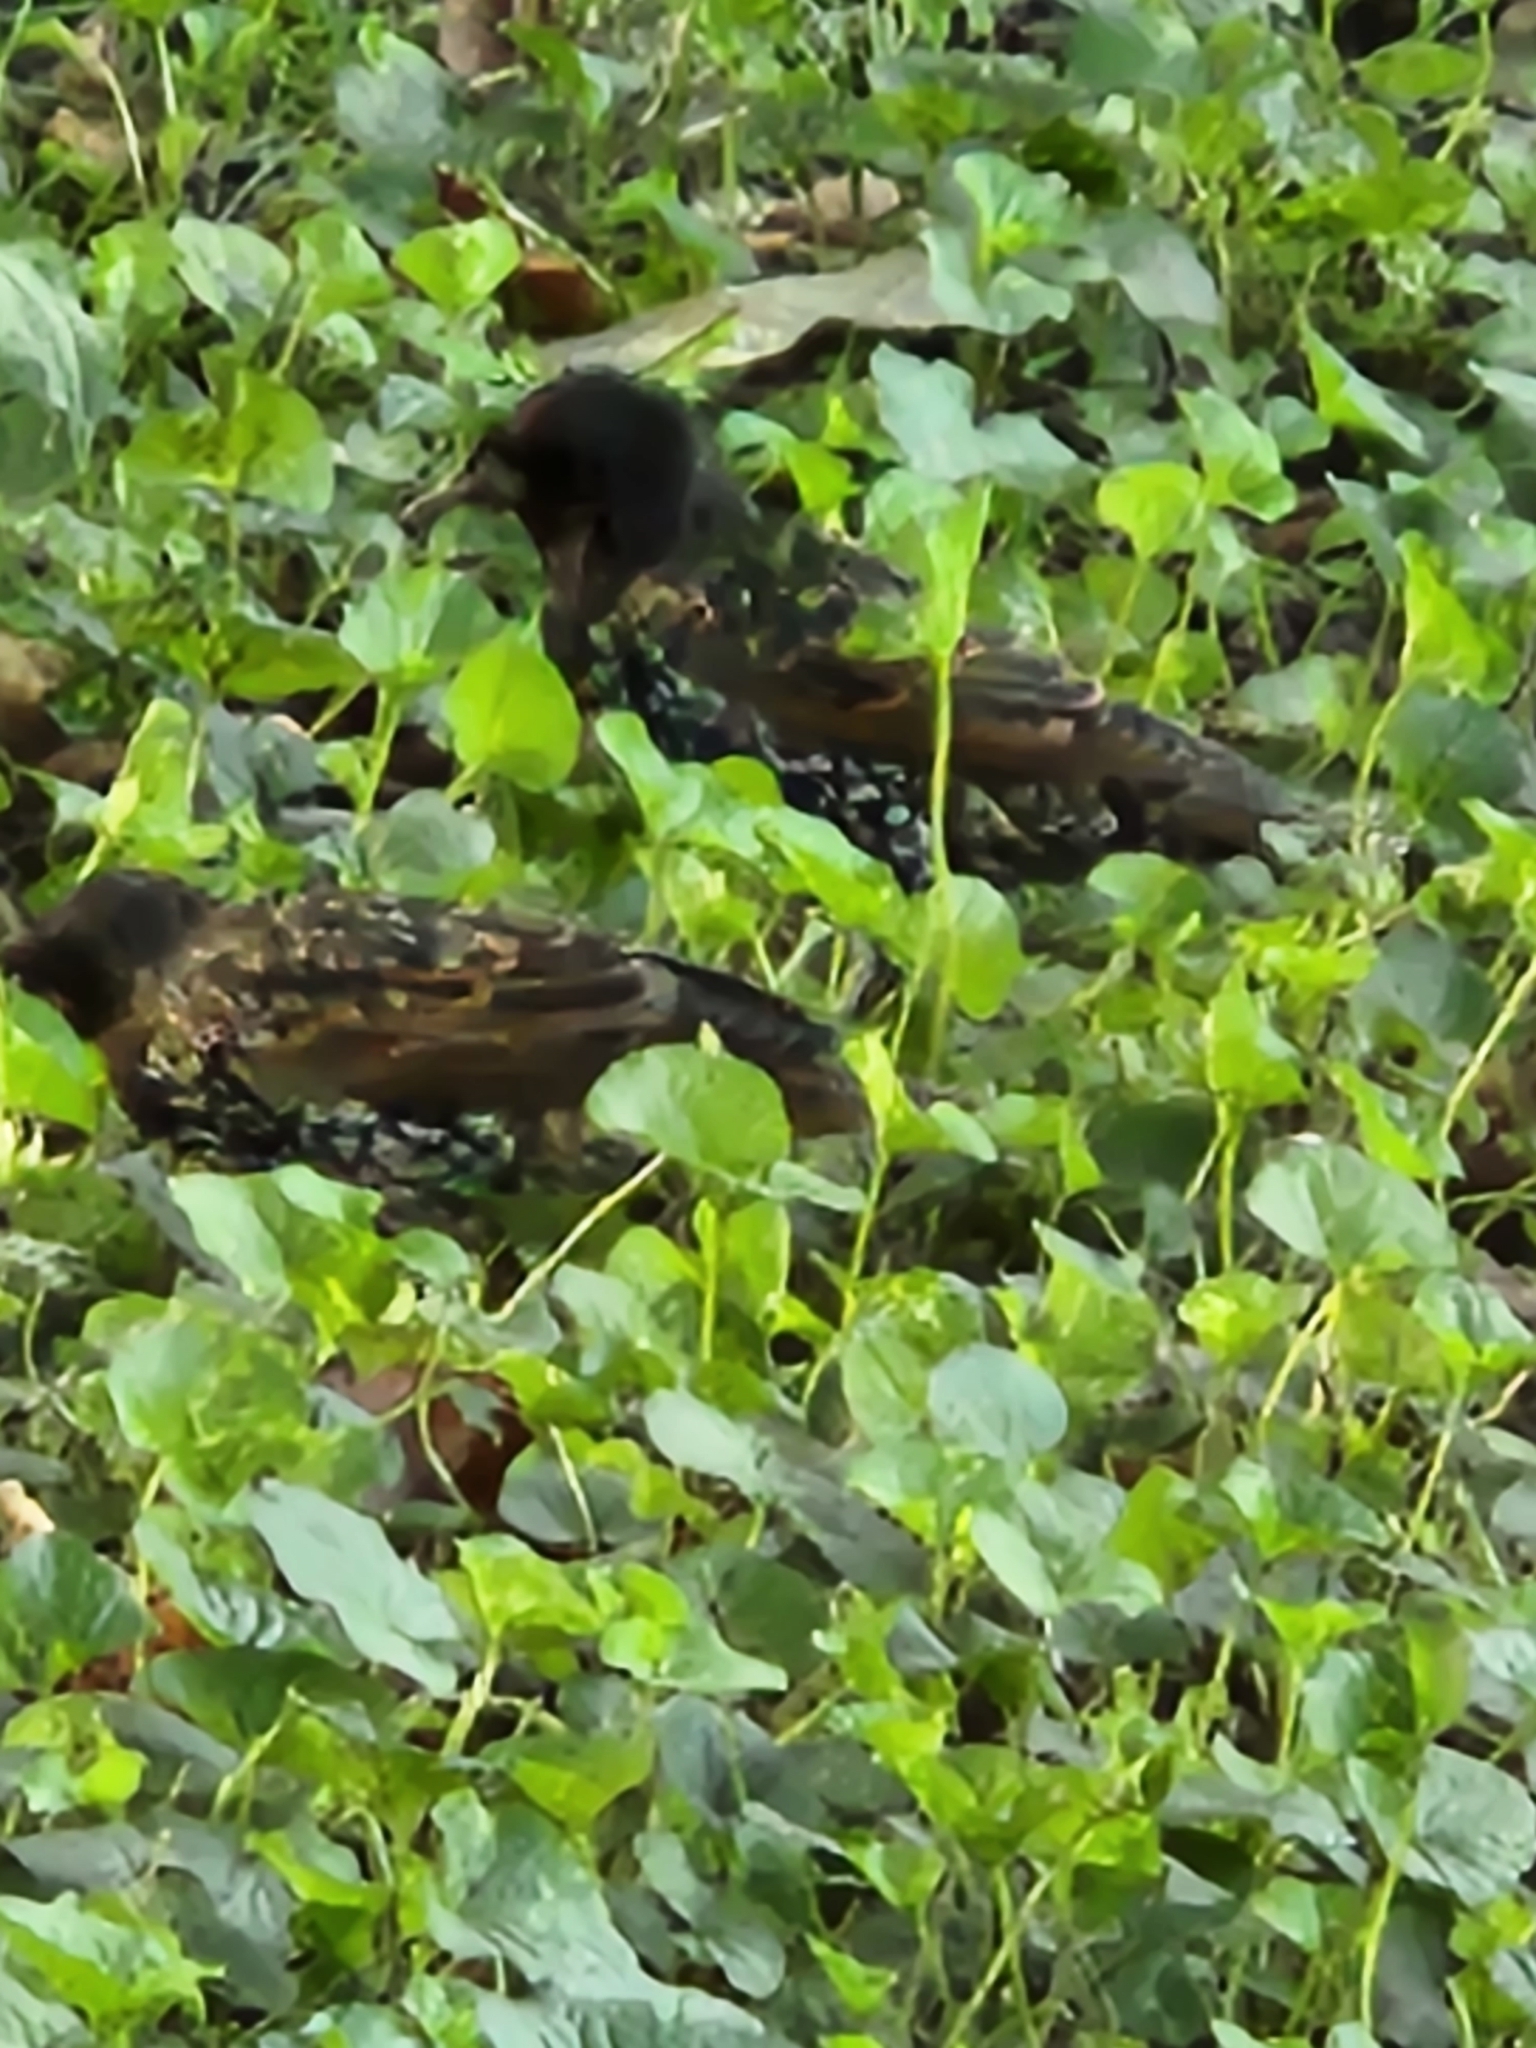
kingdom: Animalia
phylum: Chordata
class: Aves
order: Passeriformes
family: Sturnidae
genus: Sturnus
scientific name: Sturnus vulgaris
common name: Common starling
